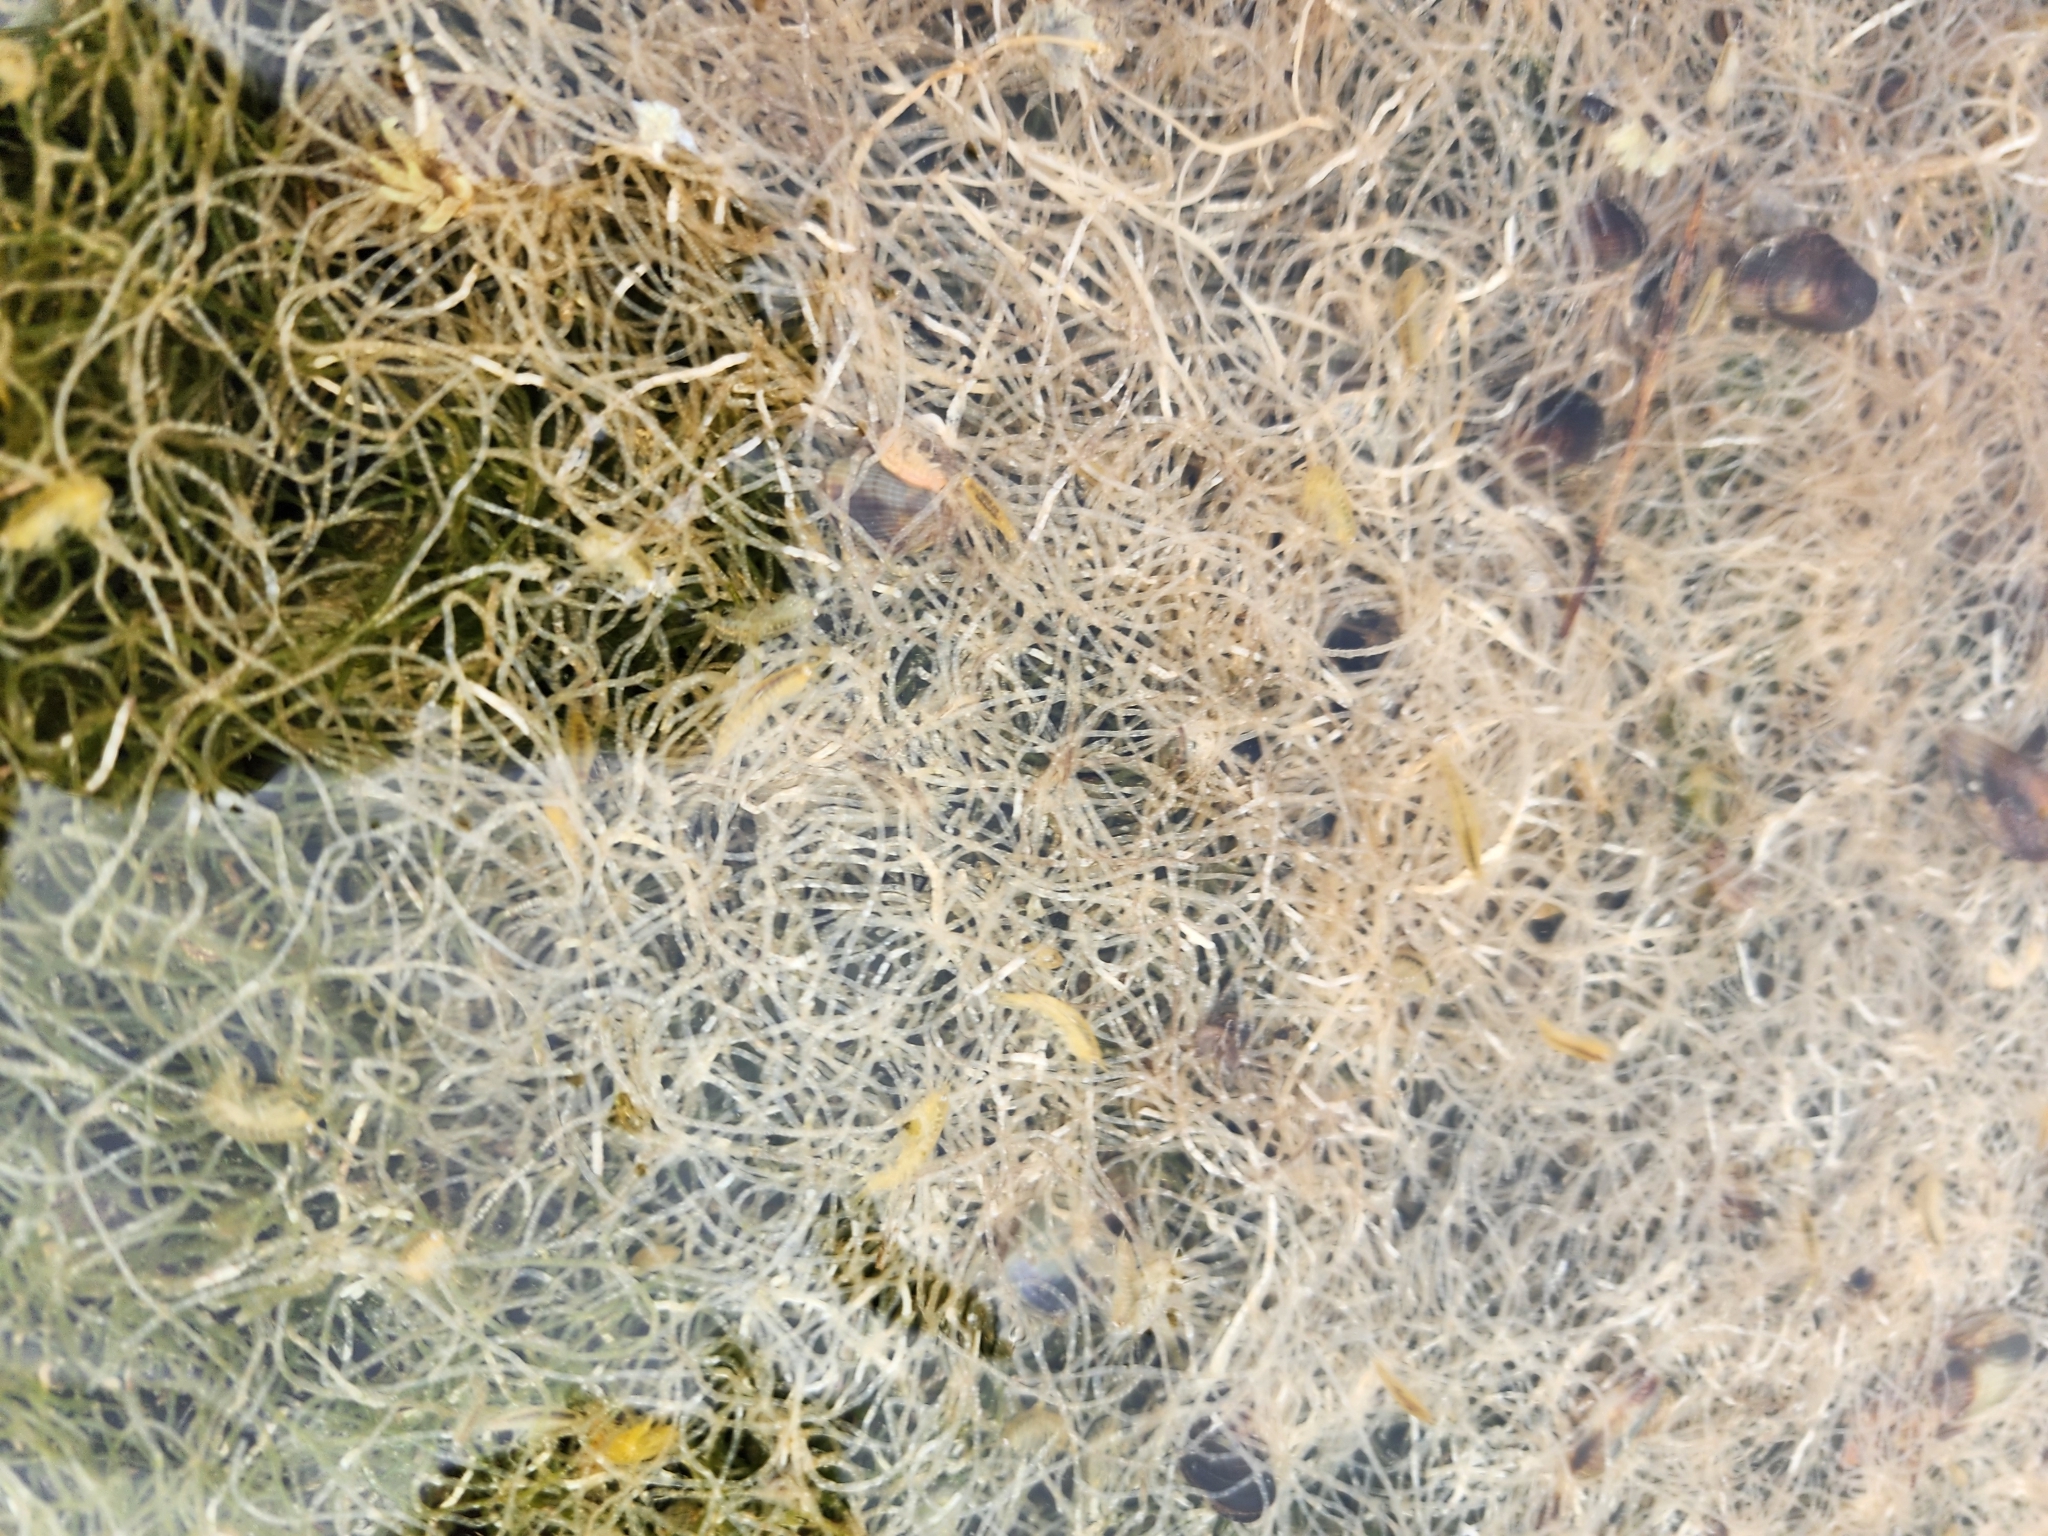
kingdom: Plantae
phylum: Chlorophyta
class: Ulvophyceae
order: Cladophorales
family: Cladophoraceae
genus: Chaetomorpha
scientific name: Chaetomorpha linum
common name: Sea hair
